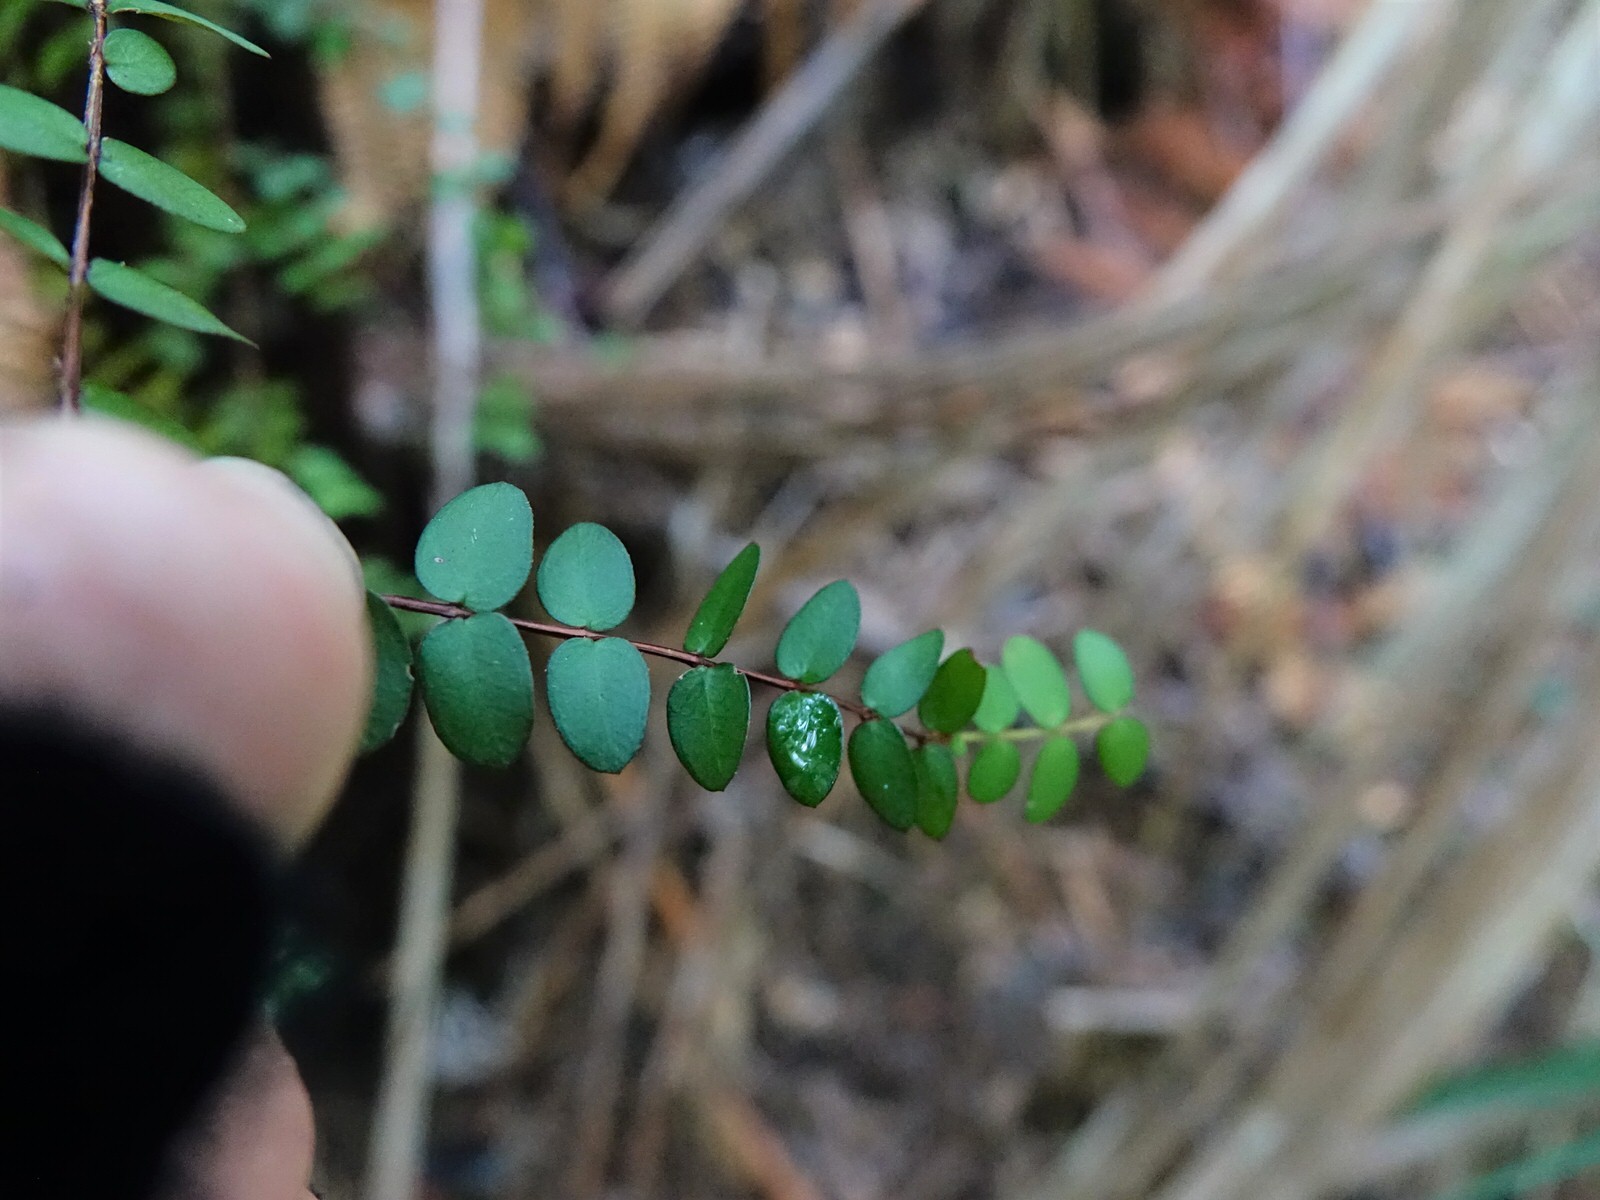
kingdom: Plantae
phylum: Tracheophyta
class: Magnoliopsida
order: Myrtales
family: Myrtaceae
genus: Metrosideros
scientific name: Metrosideros diffusa
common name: Small ratavine
